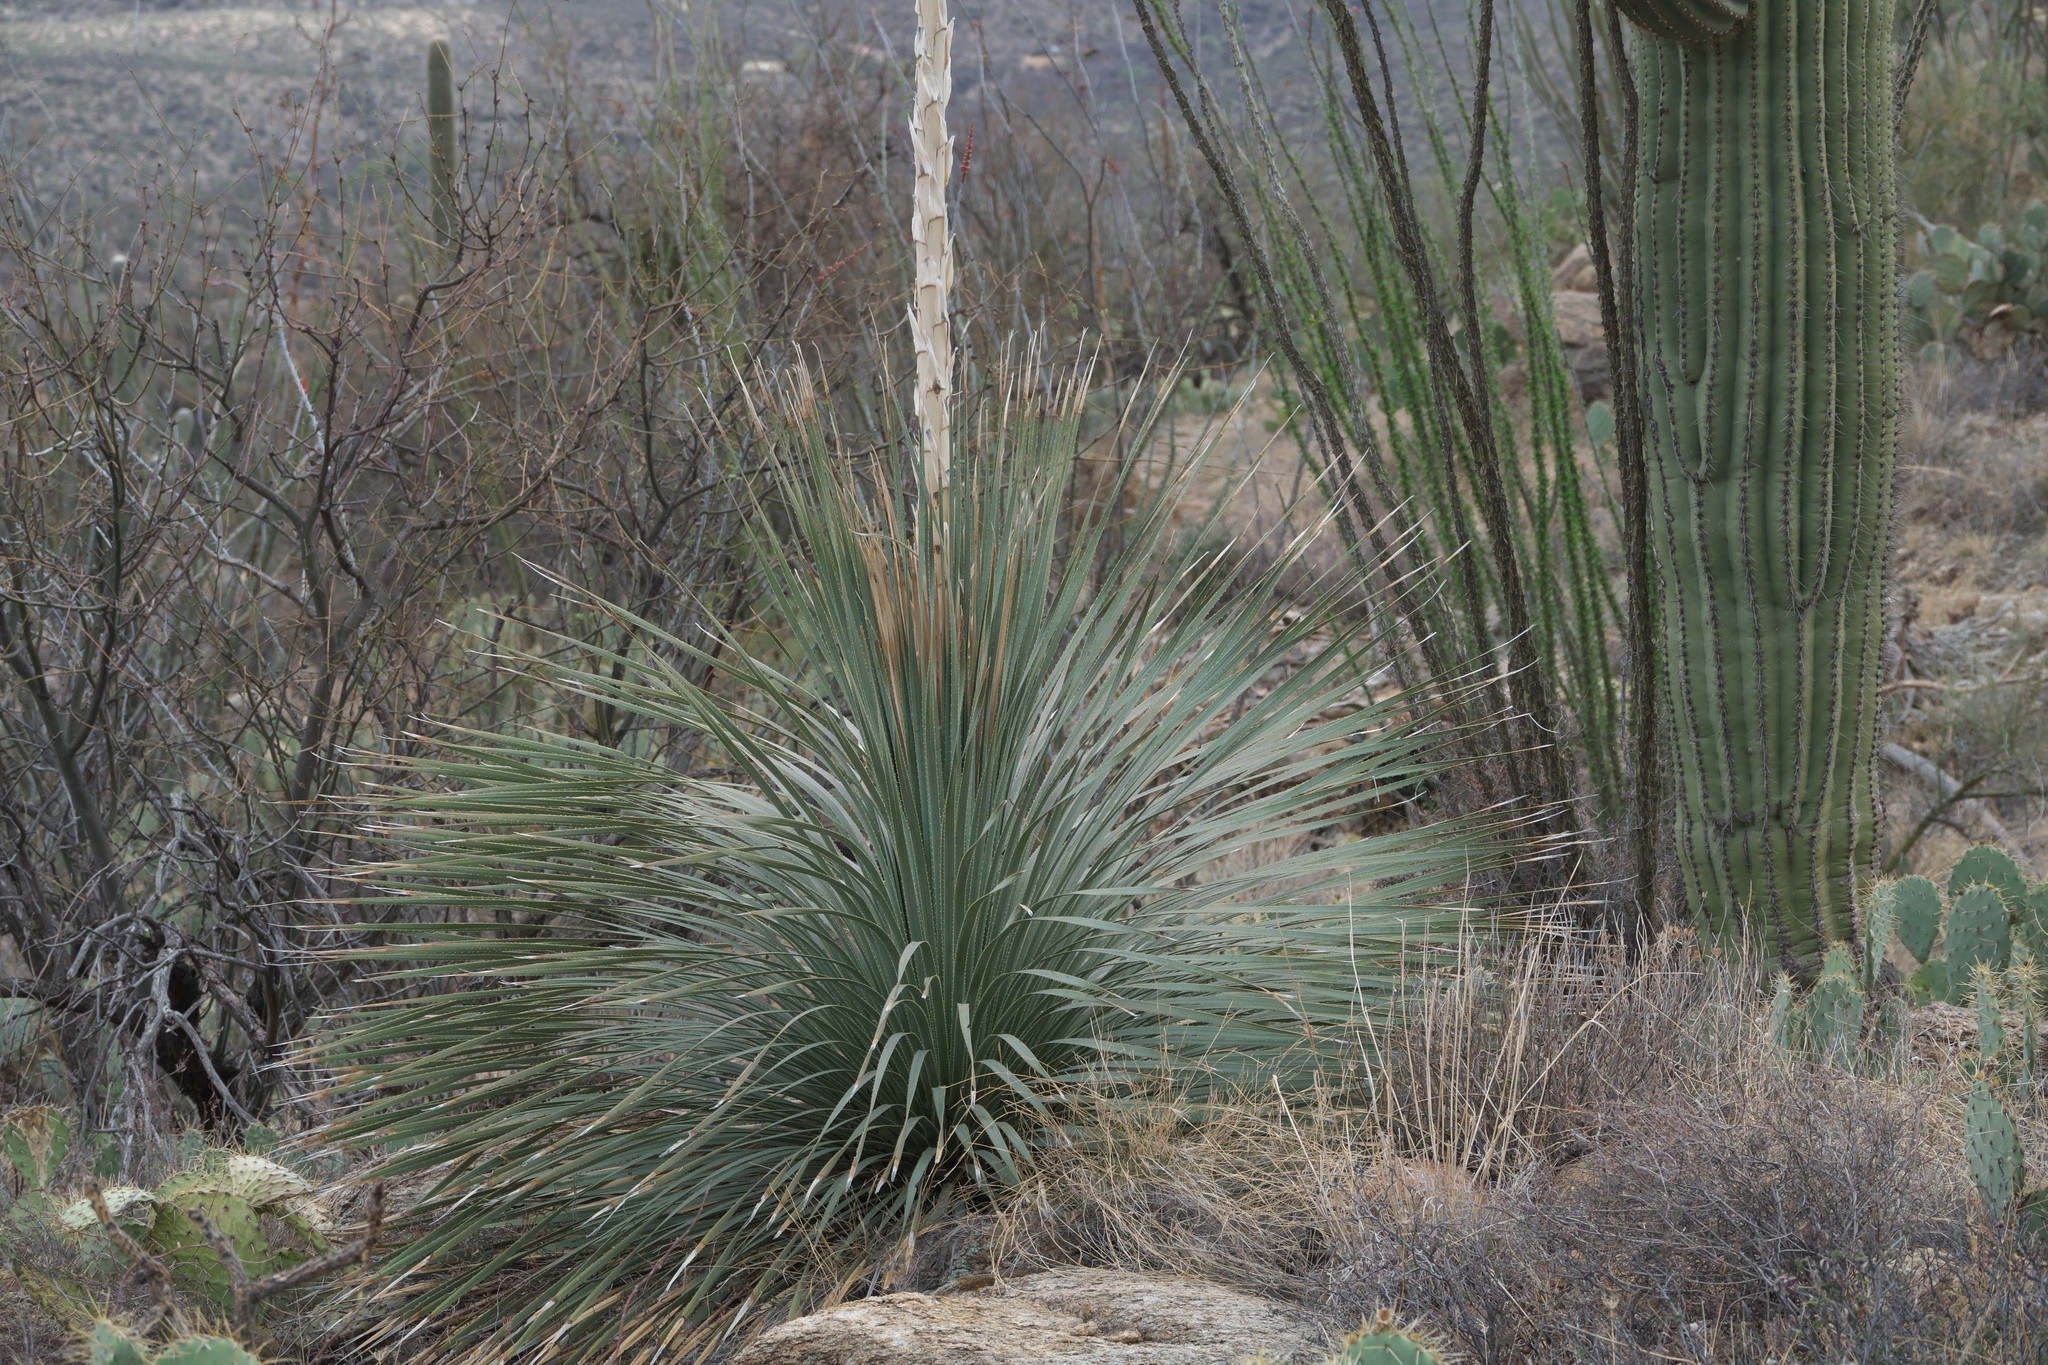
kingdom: Plantae
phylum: Tracheophyta
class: Liliopsida
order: Asparagales
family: Asparagaceae
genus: Dasylirion
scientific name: Dasylirion wheeleri
